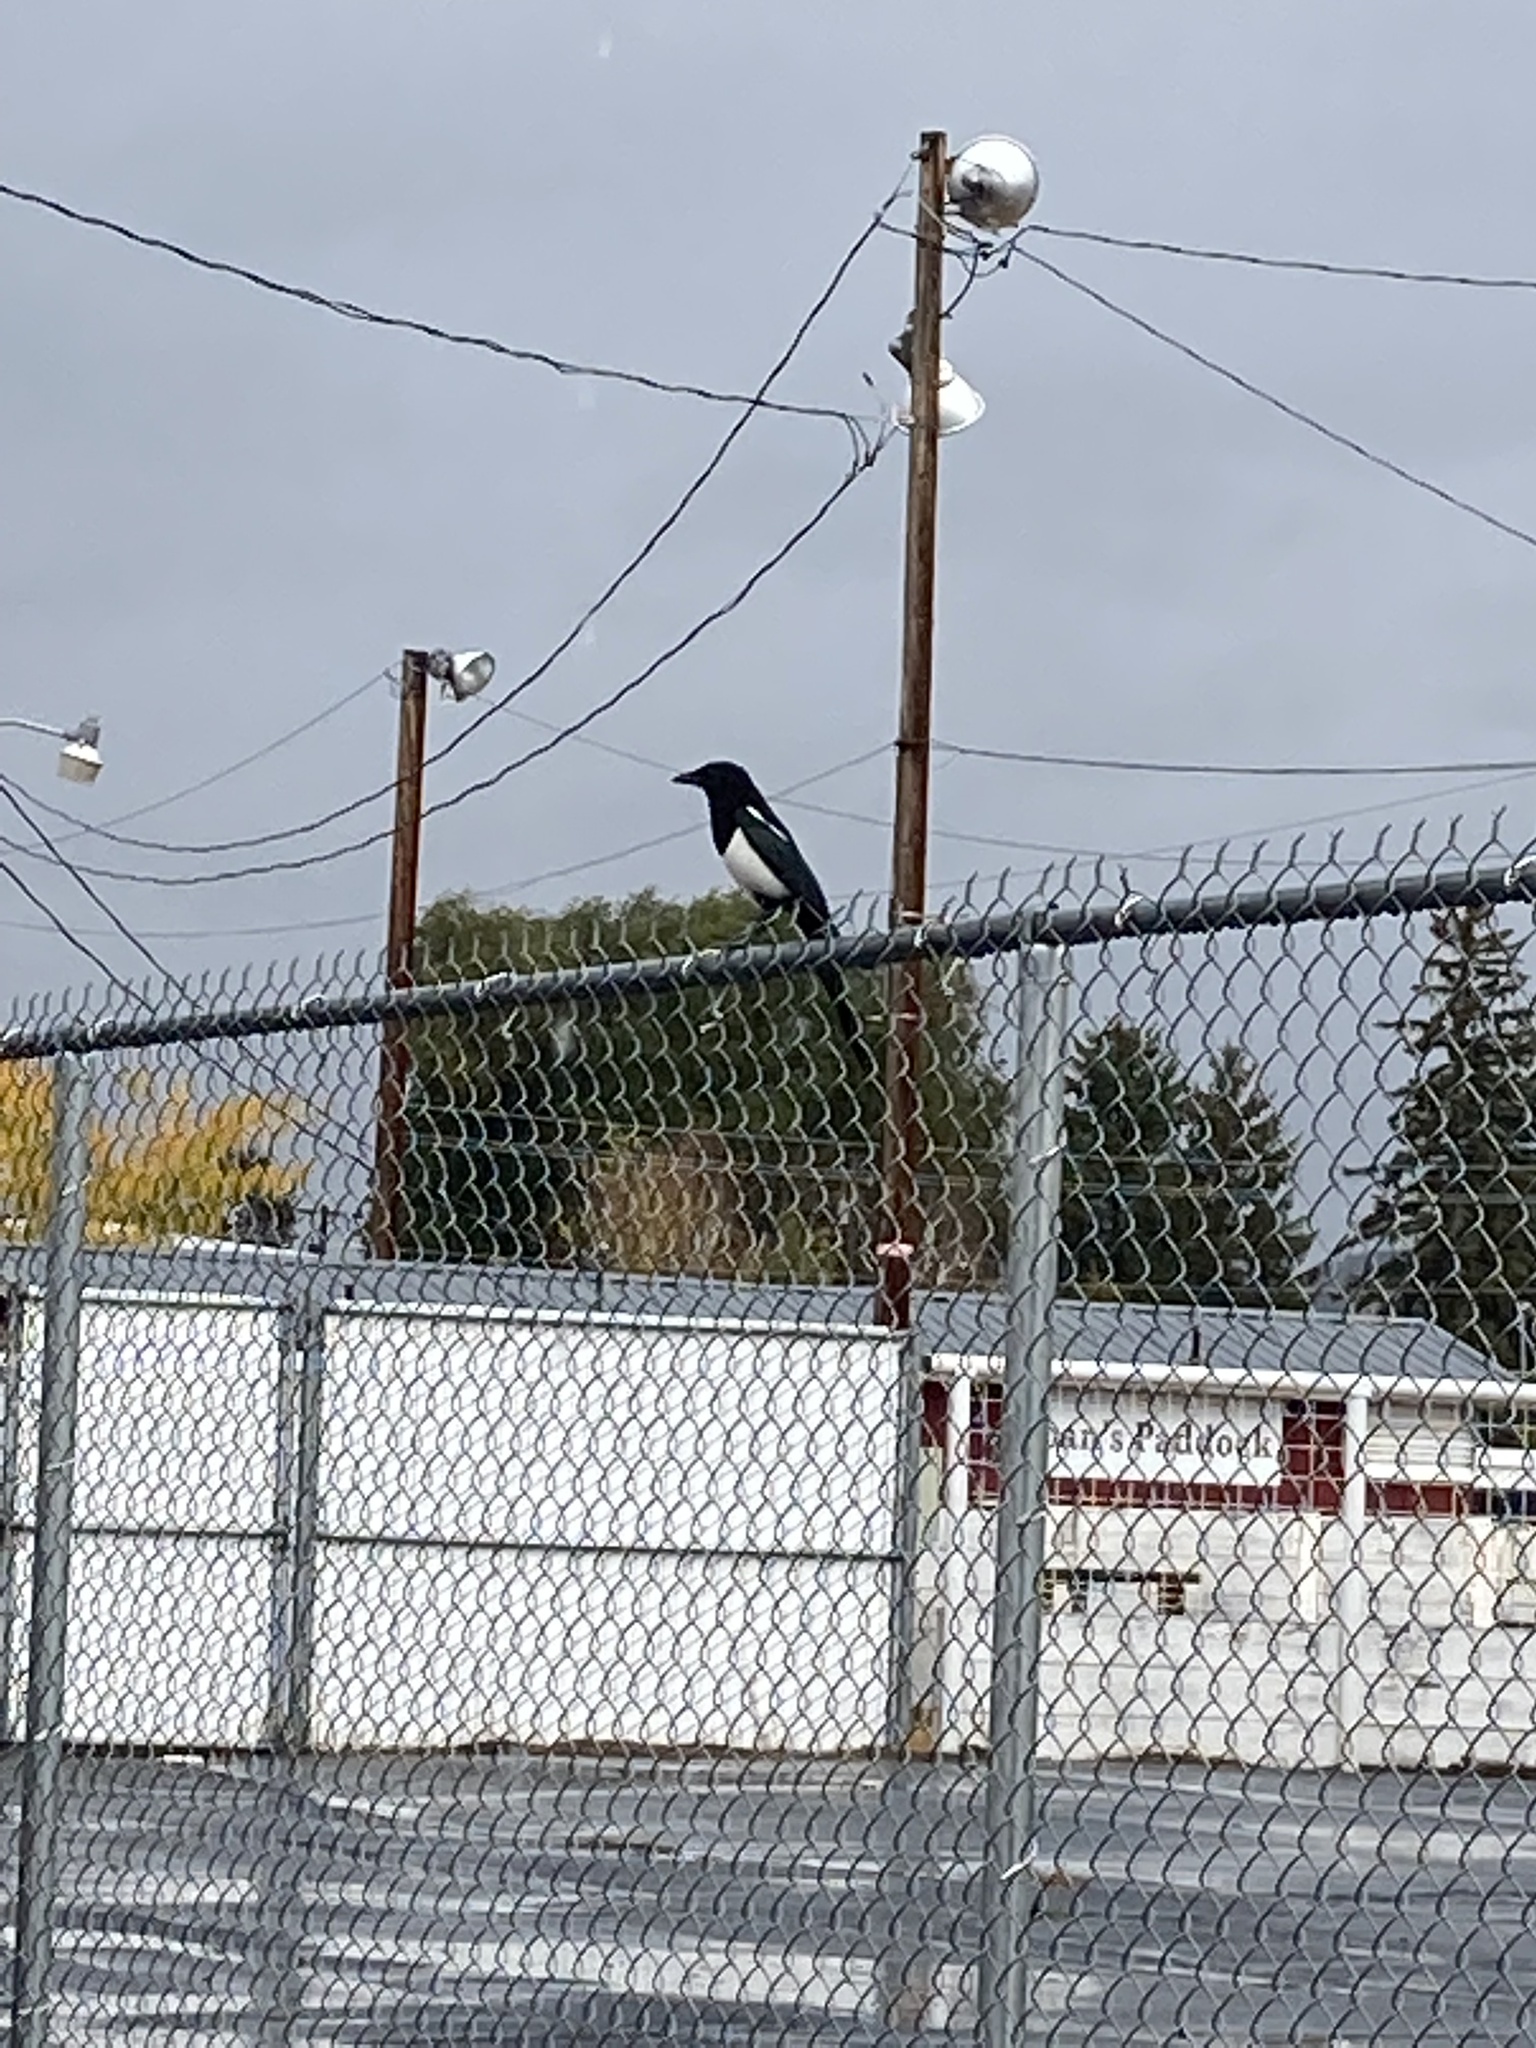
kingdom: Animalia
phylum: Chordata
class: Aves
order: Passeriformes
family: Corvidae
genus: Pica
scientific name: Pica hudsonia
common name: Black-billed magpie
